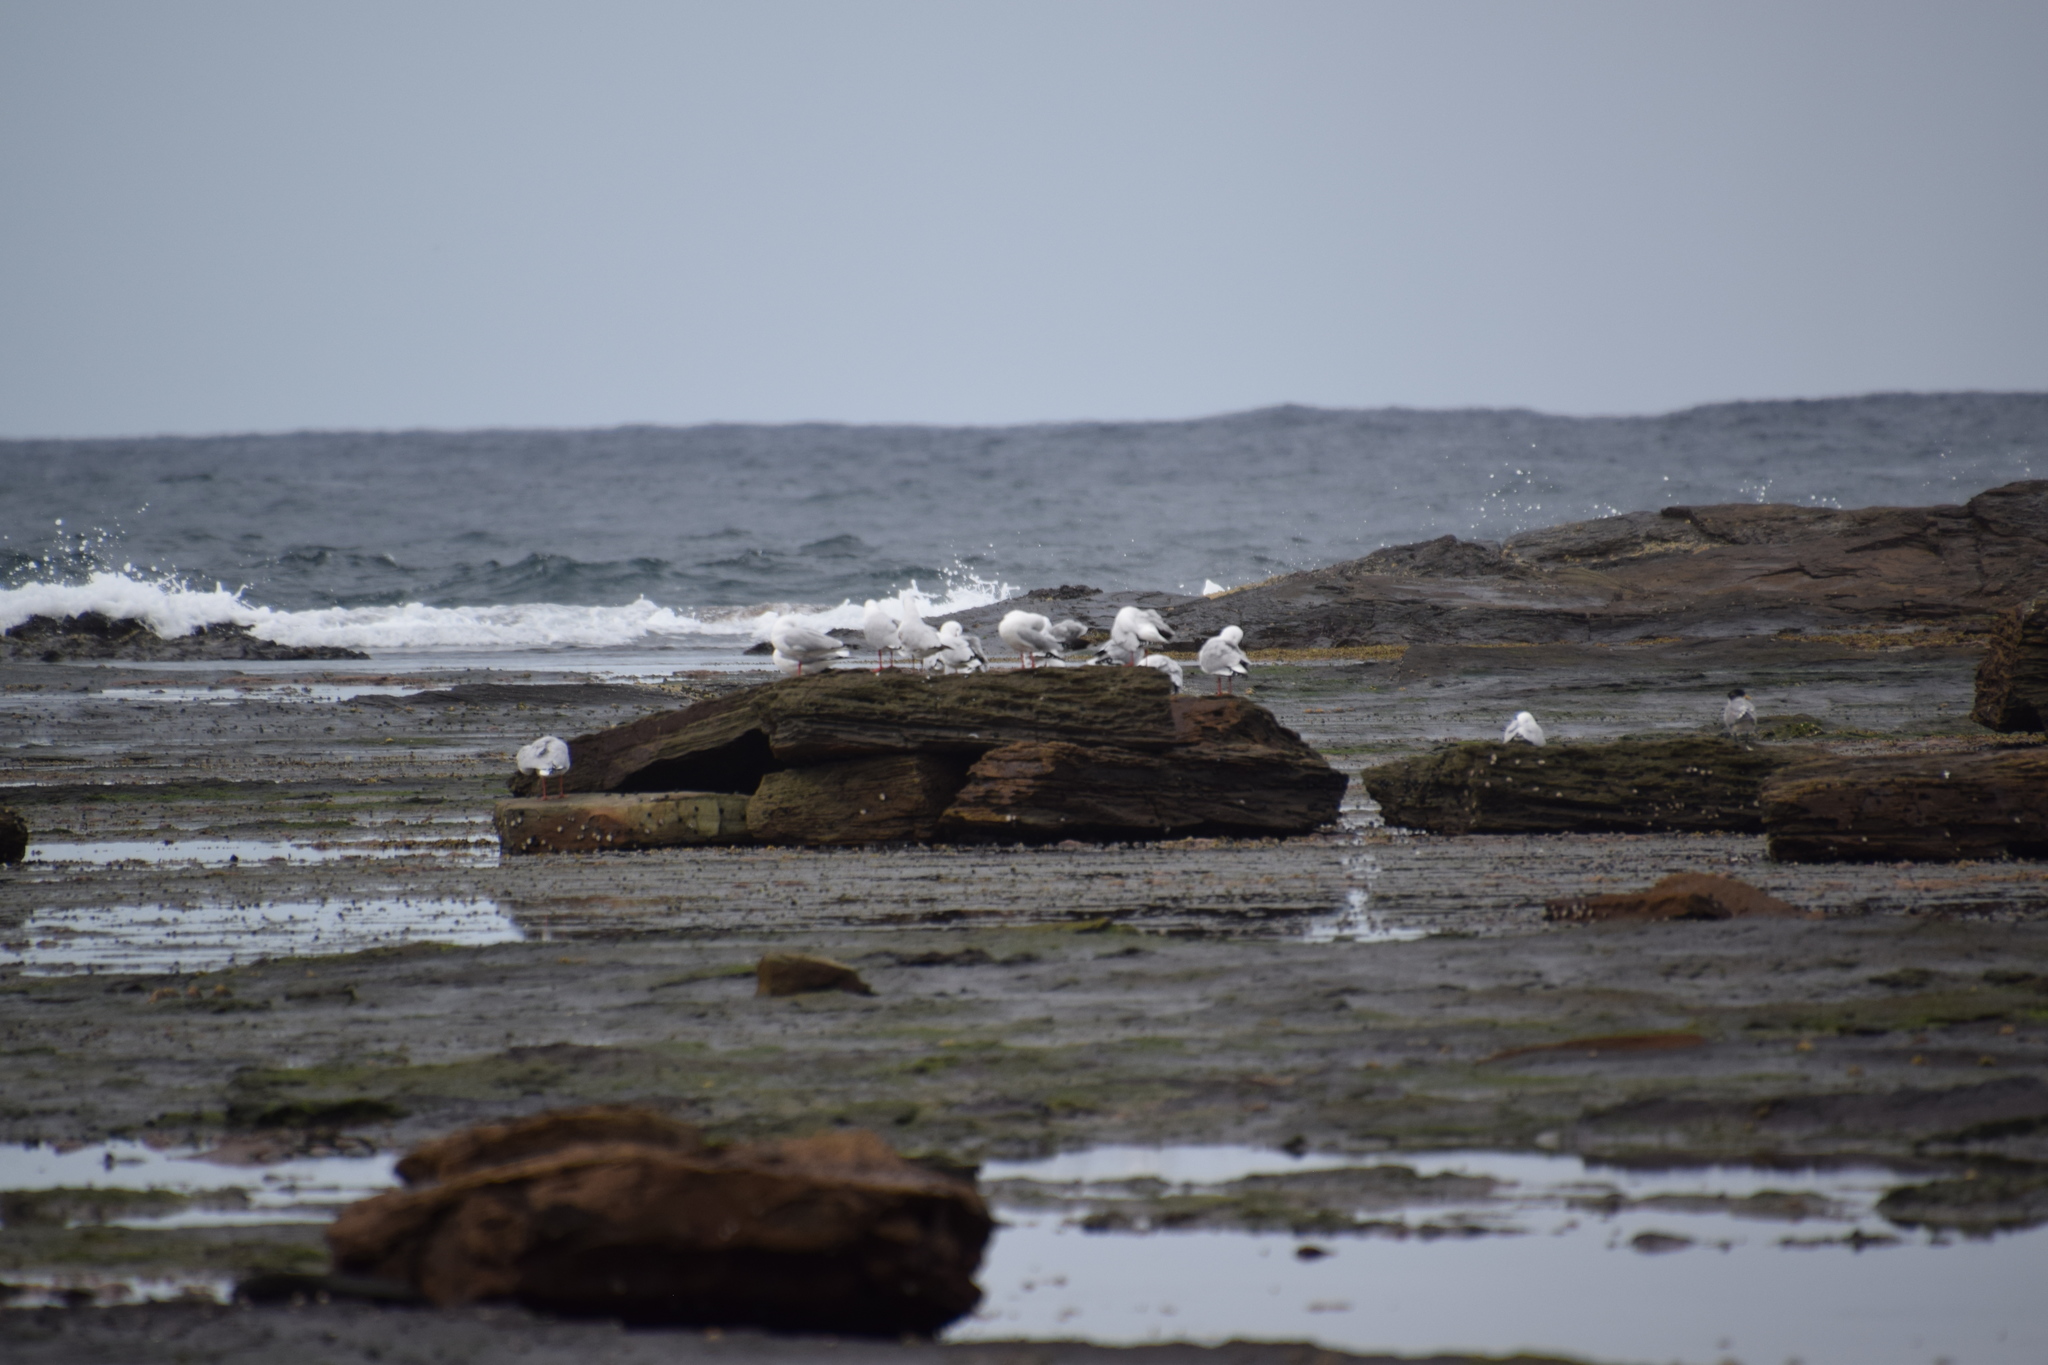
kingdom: Animalia
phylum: Chordata
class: Aves
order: Charadriiformes
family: Laridae
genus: Chroicocephalus
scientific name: Chroicocephalus novaehollandiae
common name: Silver gull
